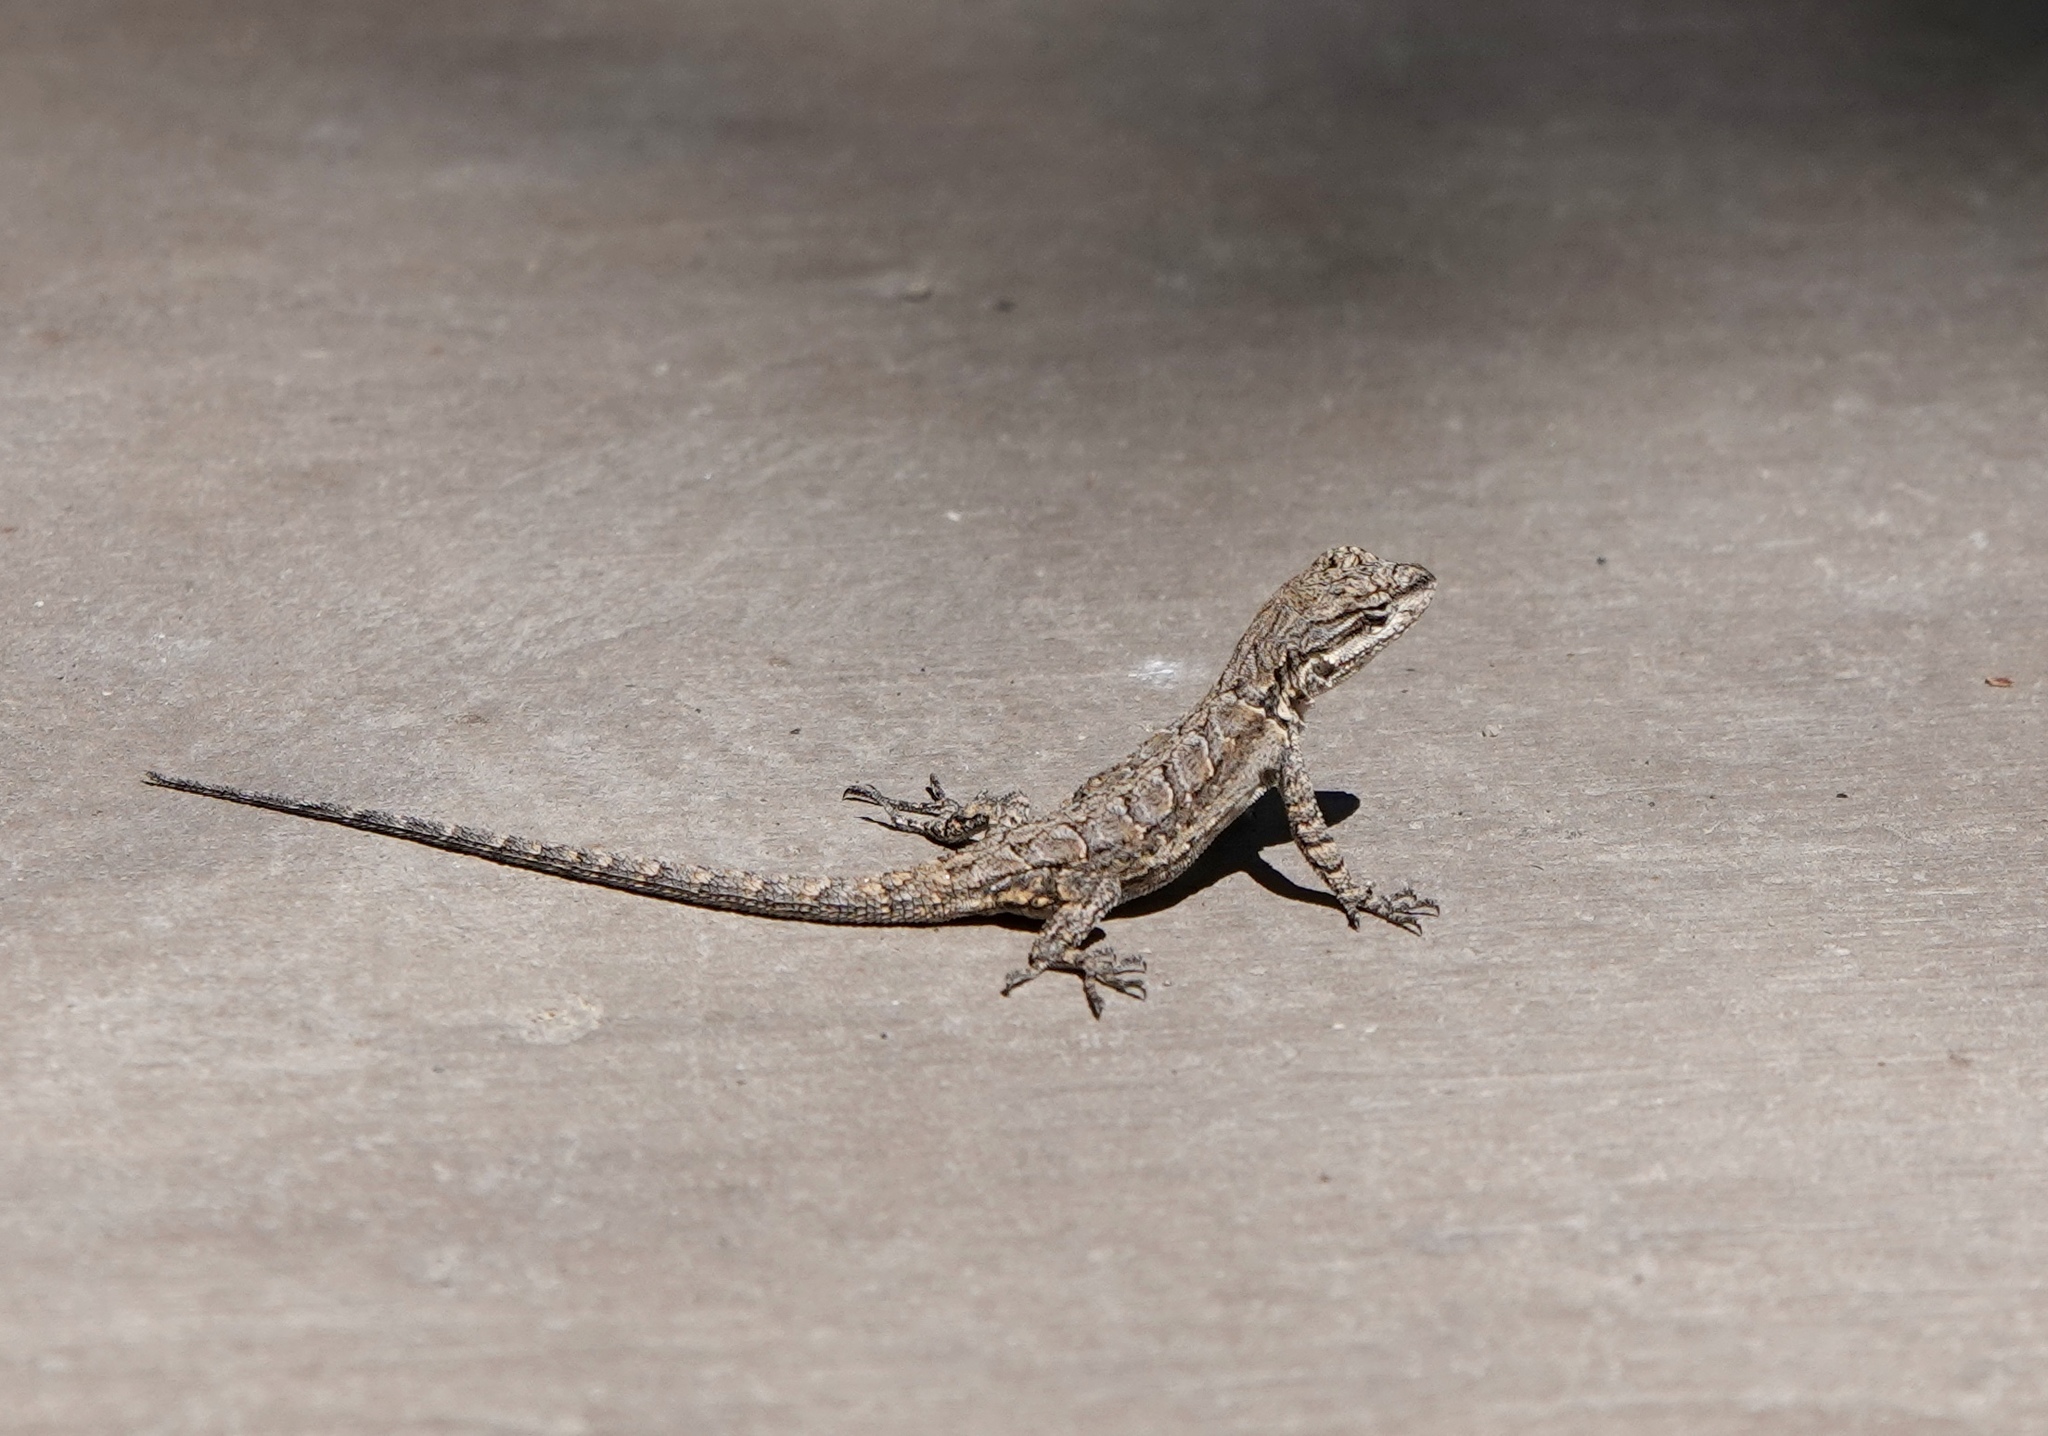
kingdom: Animalia
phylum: Chordata
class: Squamata
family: Phrynosomatidae
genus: Urosaurus
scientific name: Urosaurus ornatus
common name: Ornate tree lizard
